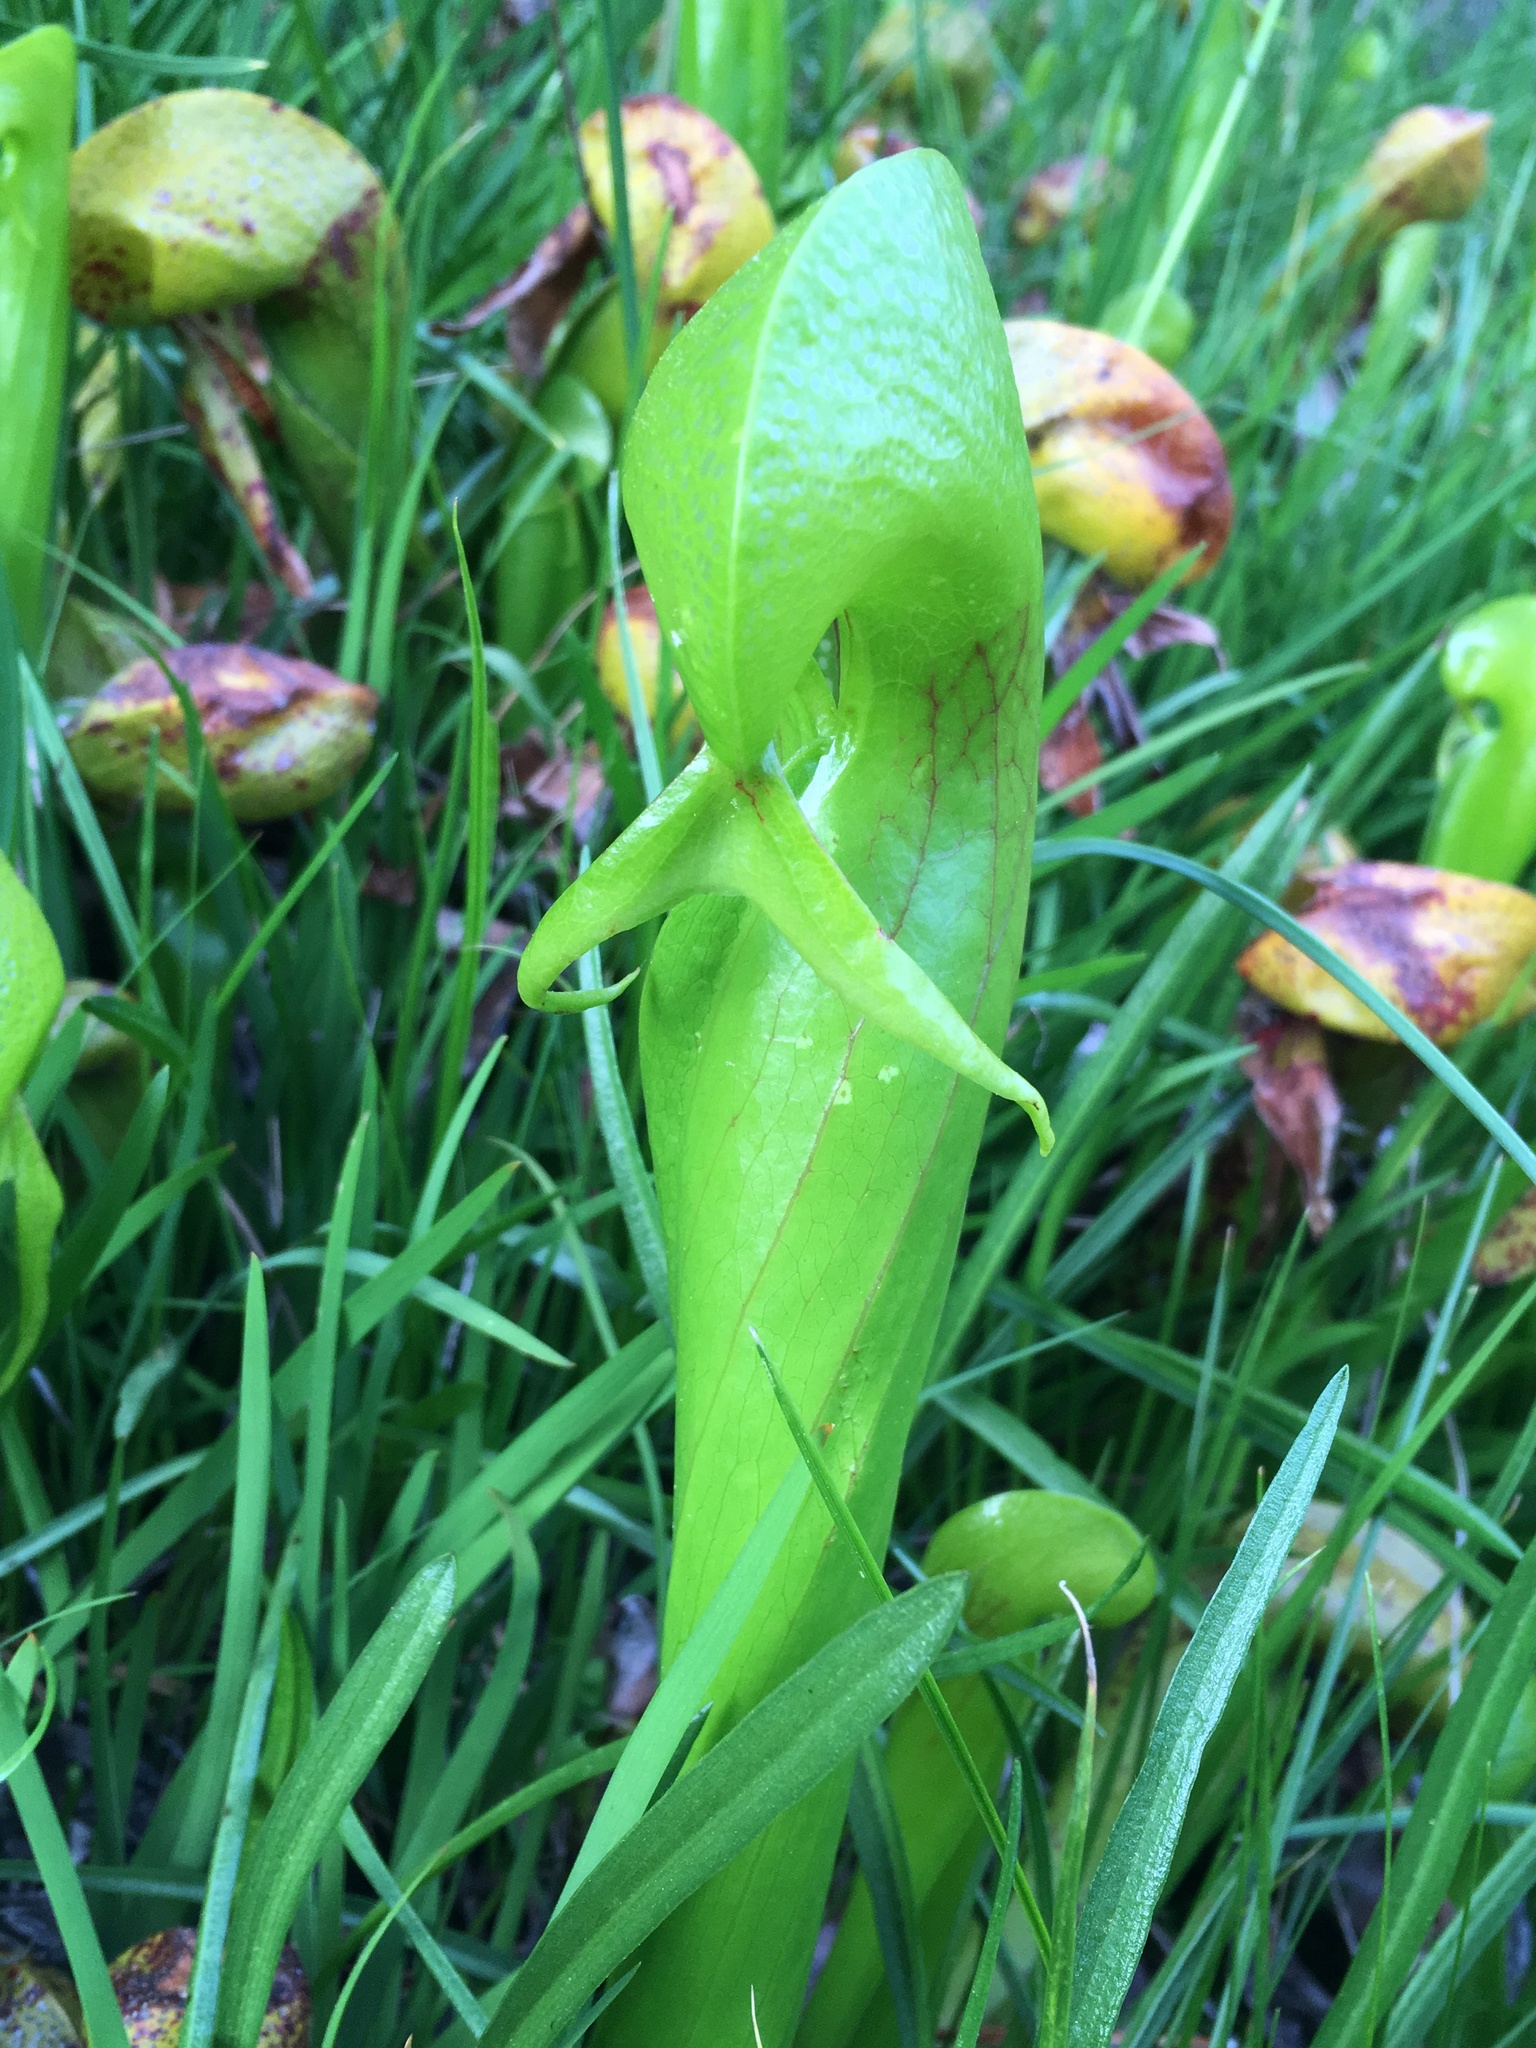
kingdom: Plantae
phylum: Tracheophyta
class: Magnoliopsida
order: Ericales
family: Sarraceniaceae
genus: Darlingtonia
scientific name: Darlingtonia californica
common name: California pitcher plant
